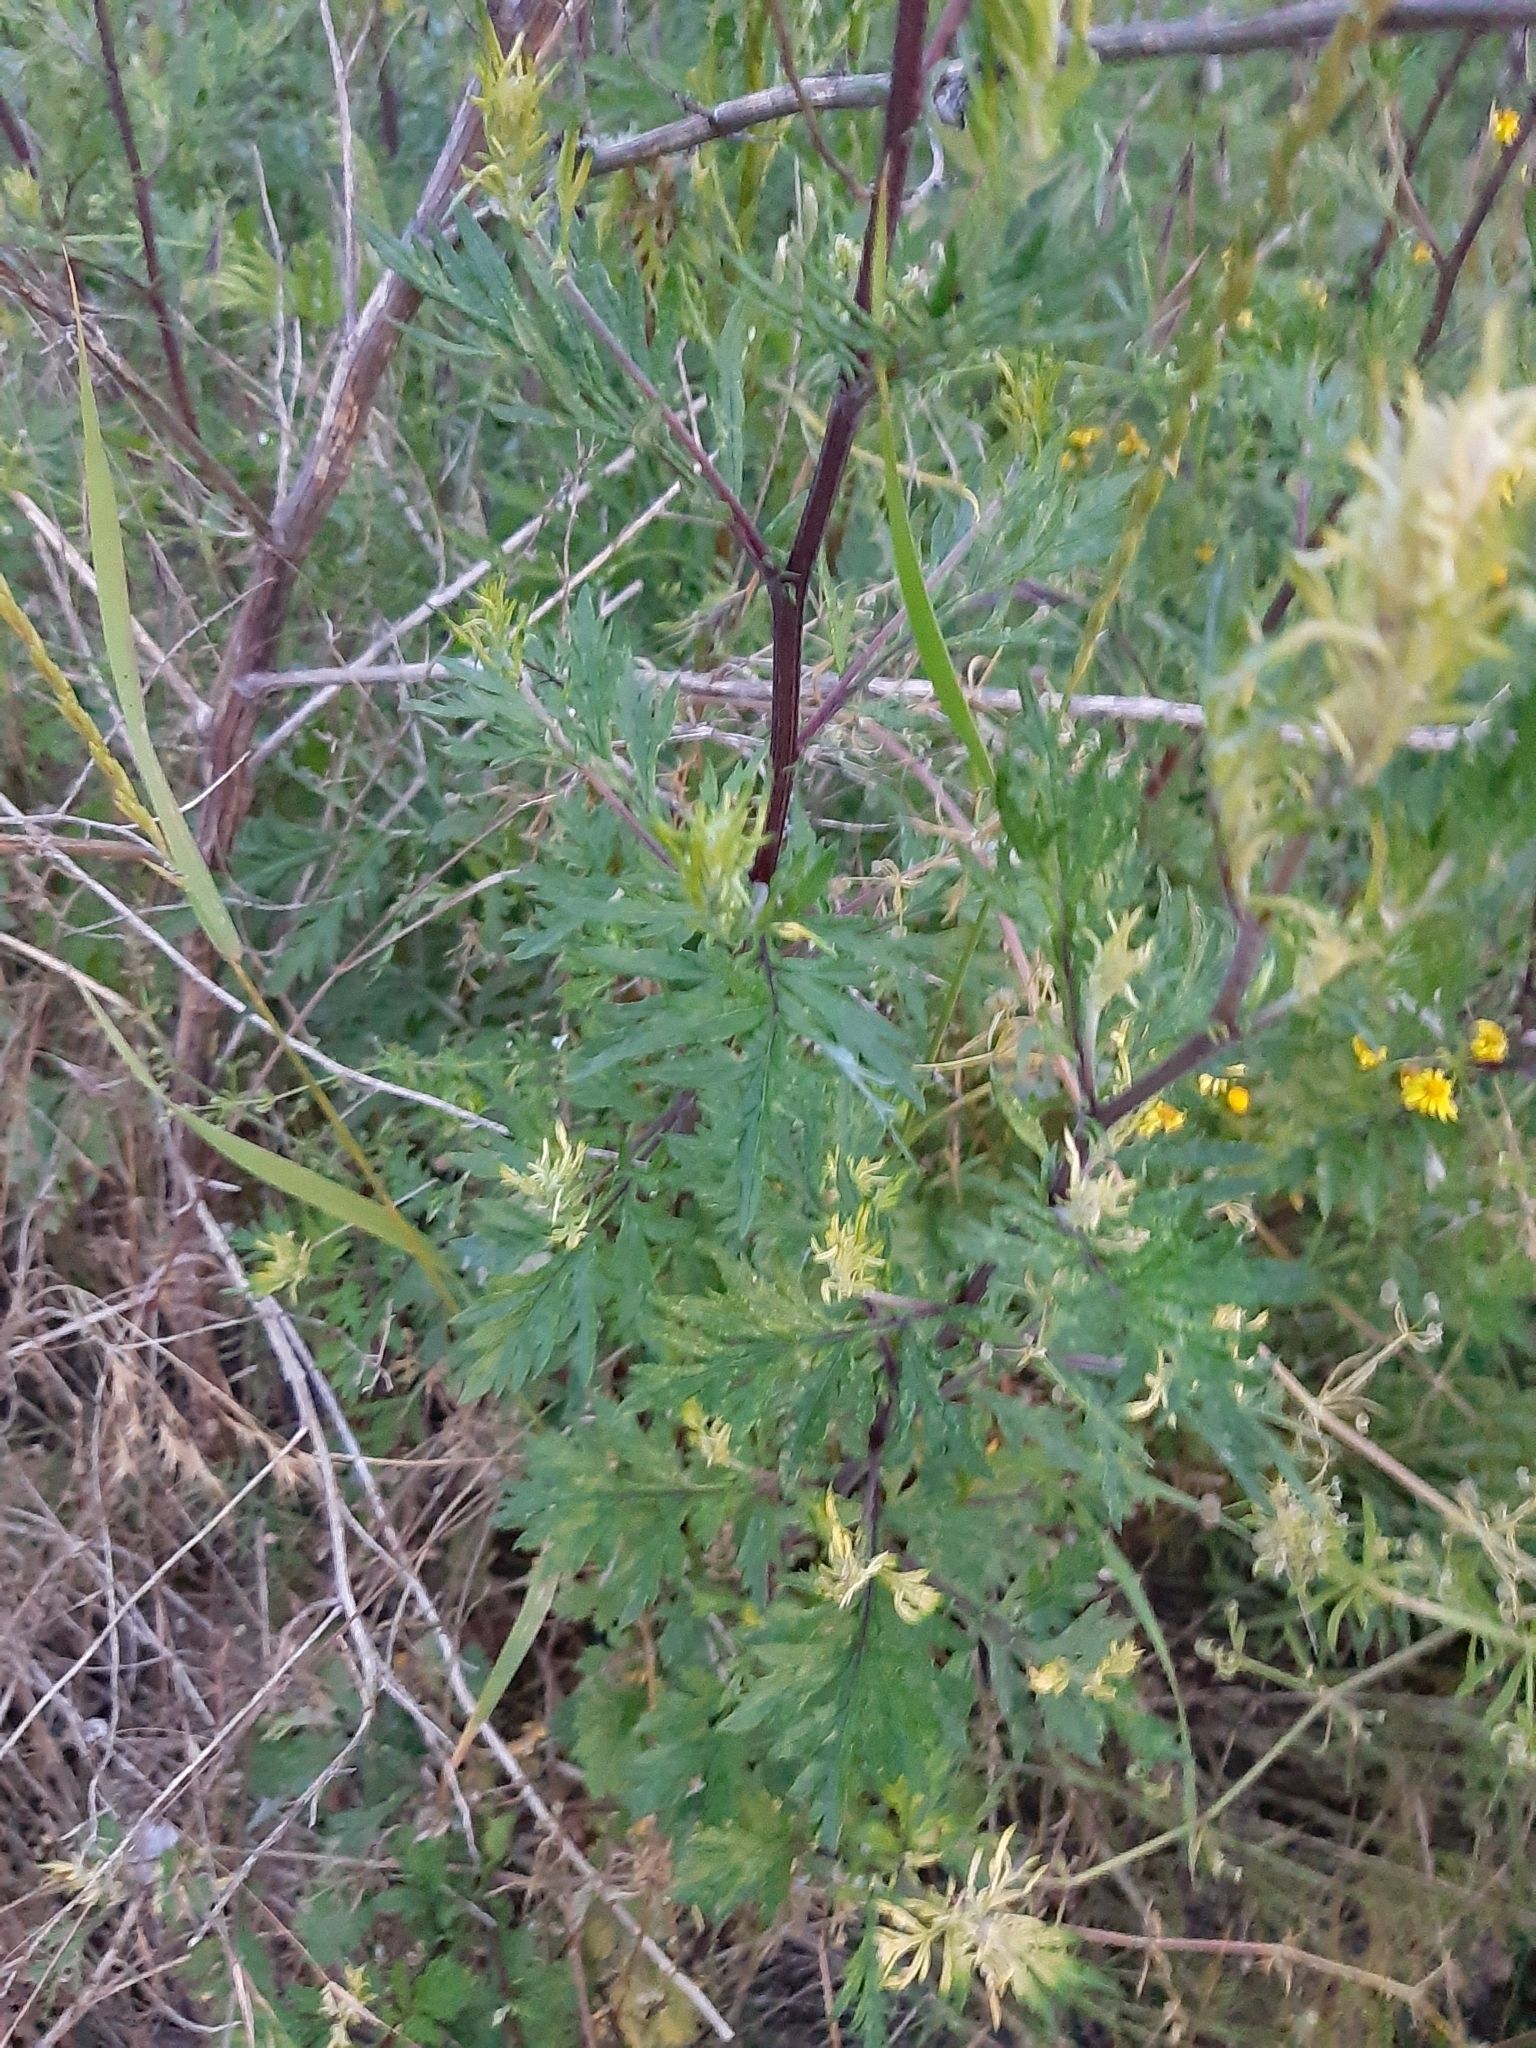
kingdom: Plantae
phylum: Tracheophyta
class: Magnoliopsida
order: Asterales
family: Asteraceae
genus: Artemisia
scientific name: Artemisia vulgaris
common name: Mugwort
